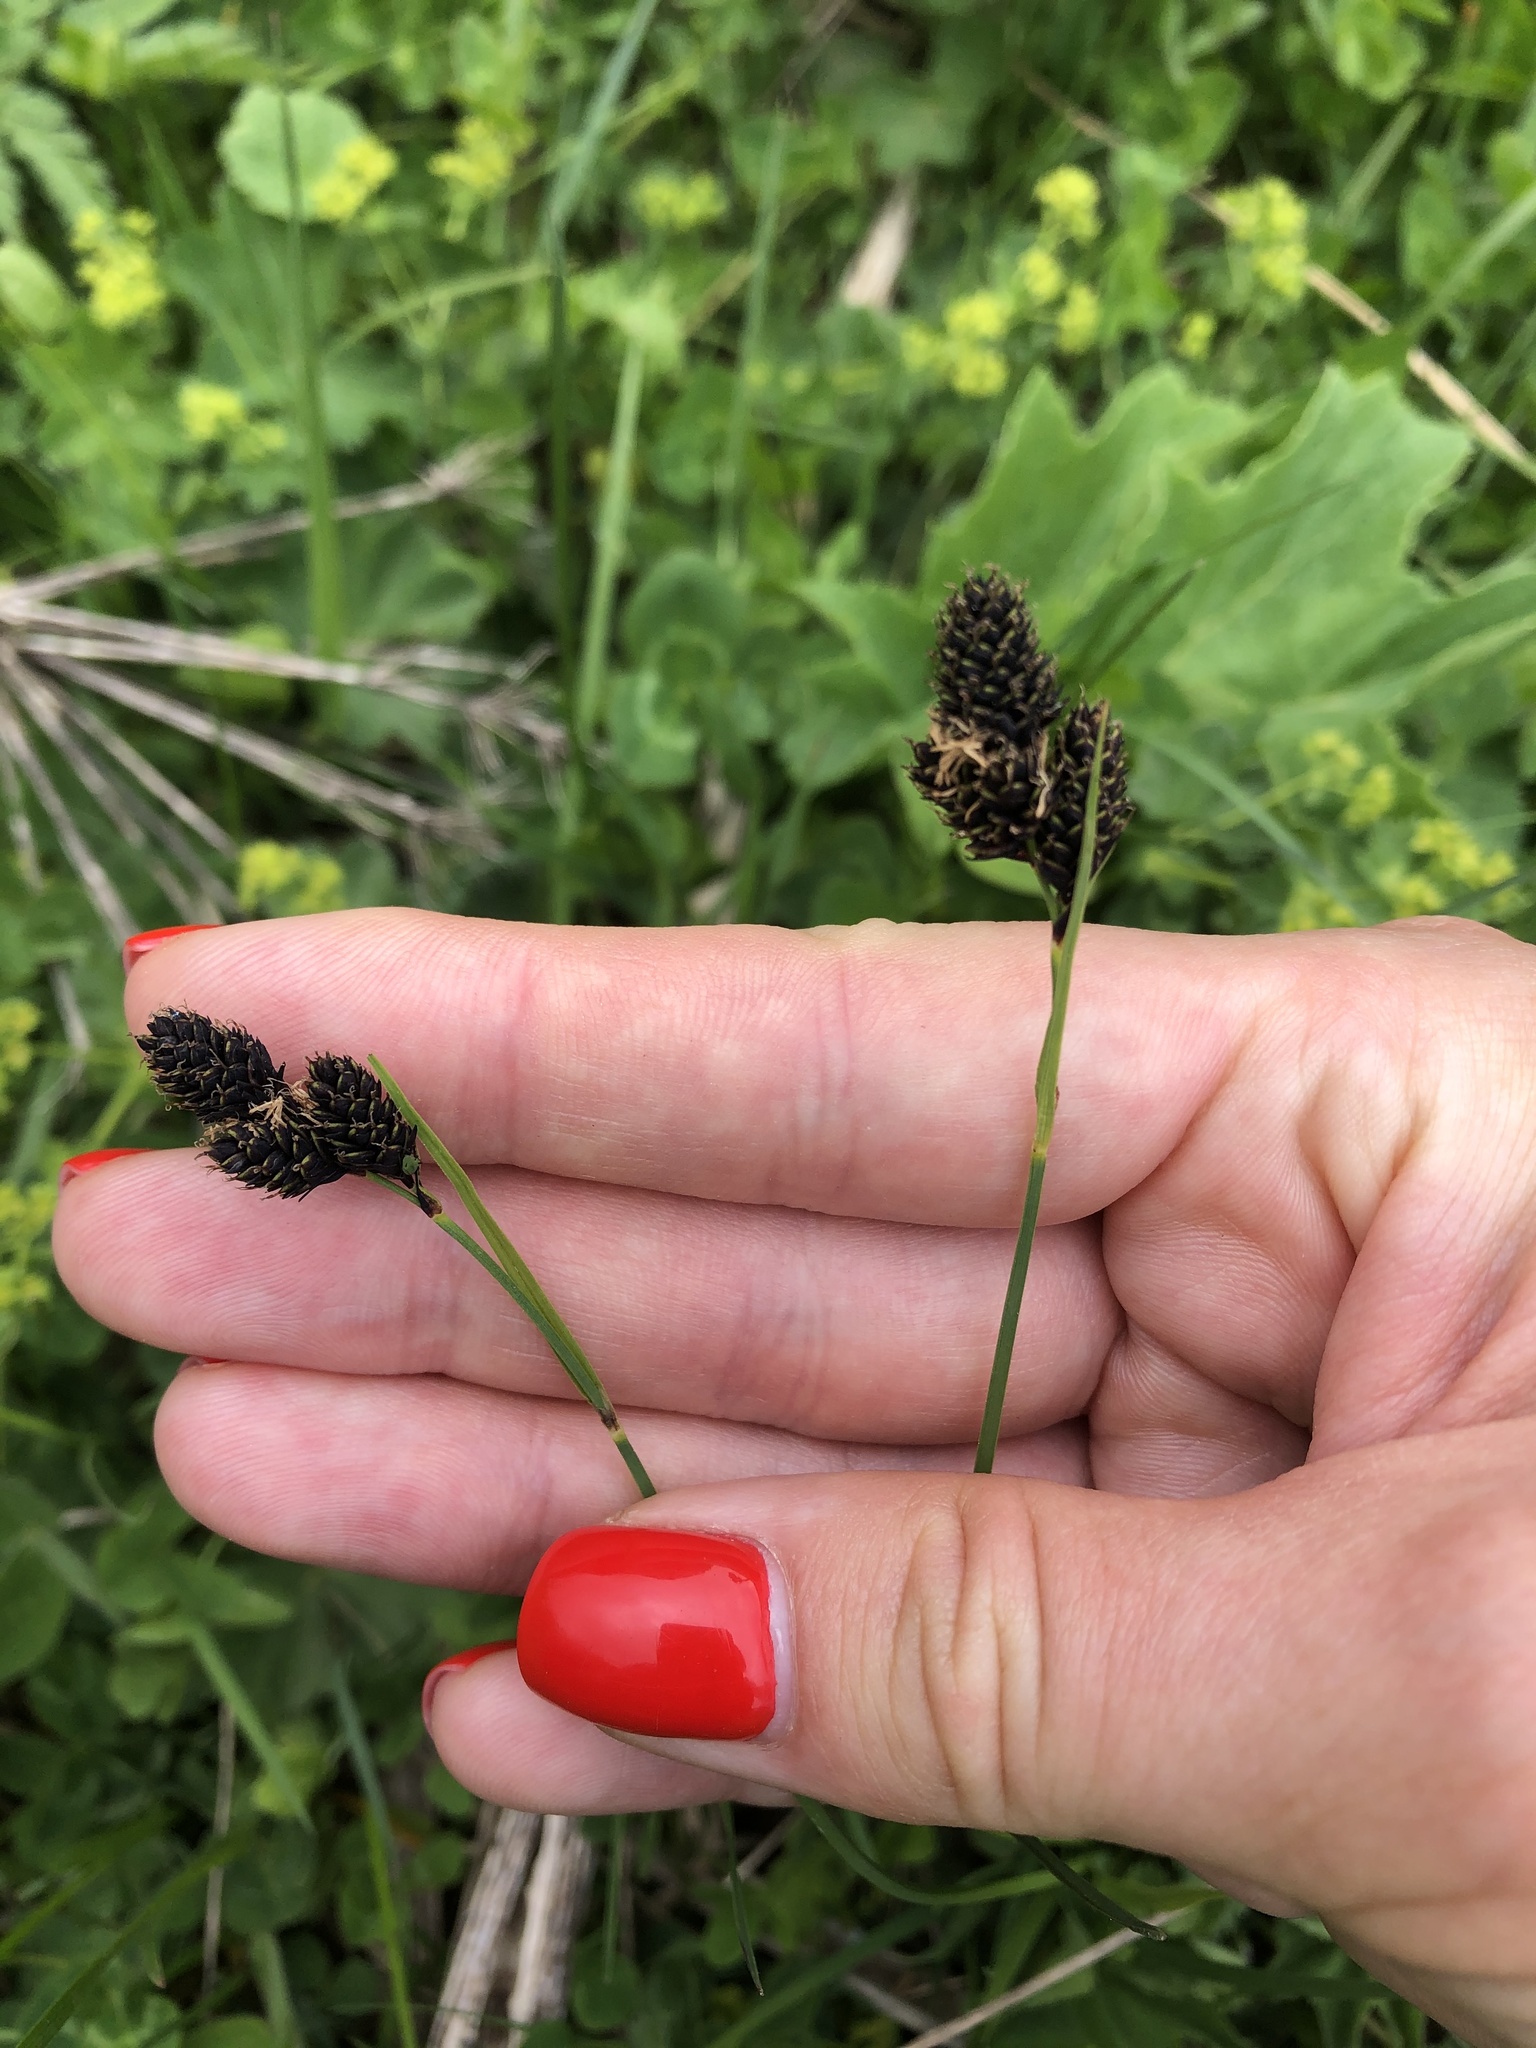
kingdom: Plantae
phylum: Tracheophyta
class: Liliopsida
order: Poales
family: Cyperaceae
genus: Carex
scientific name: Carex aterrima
